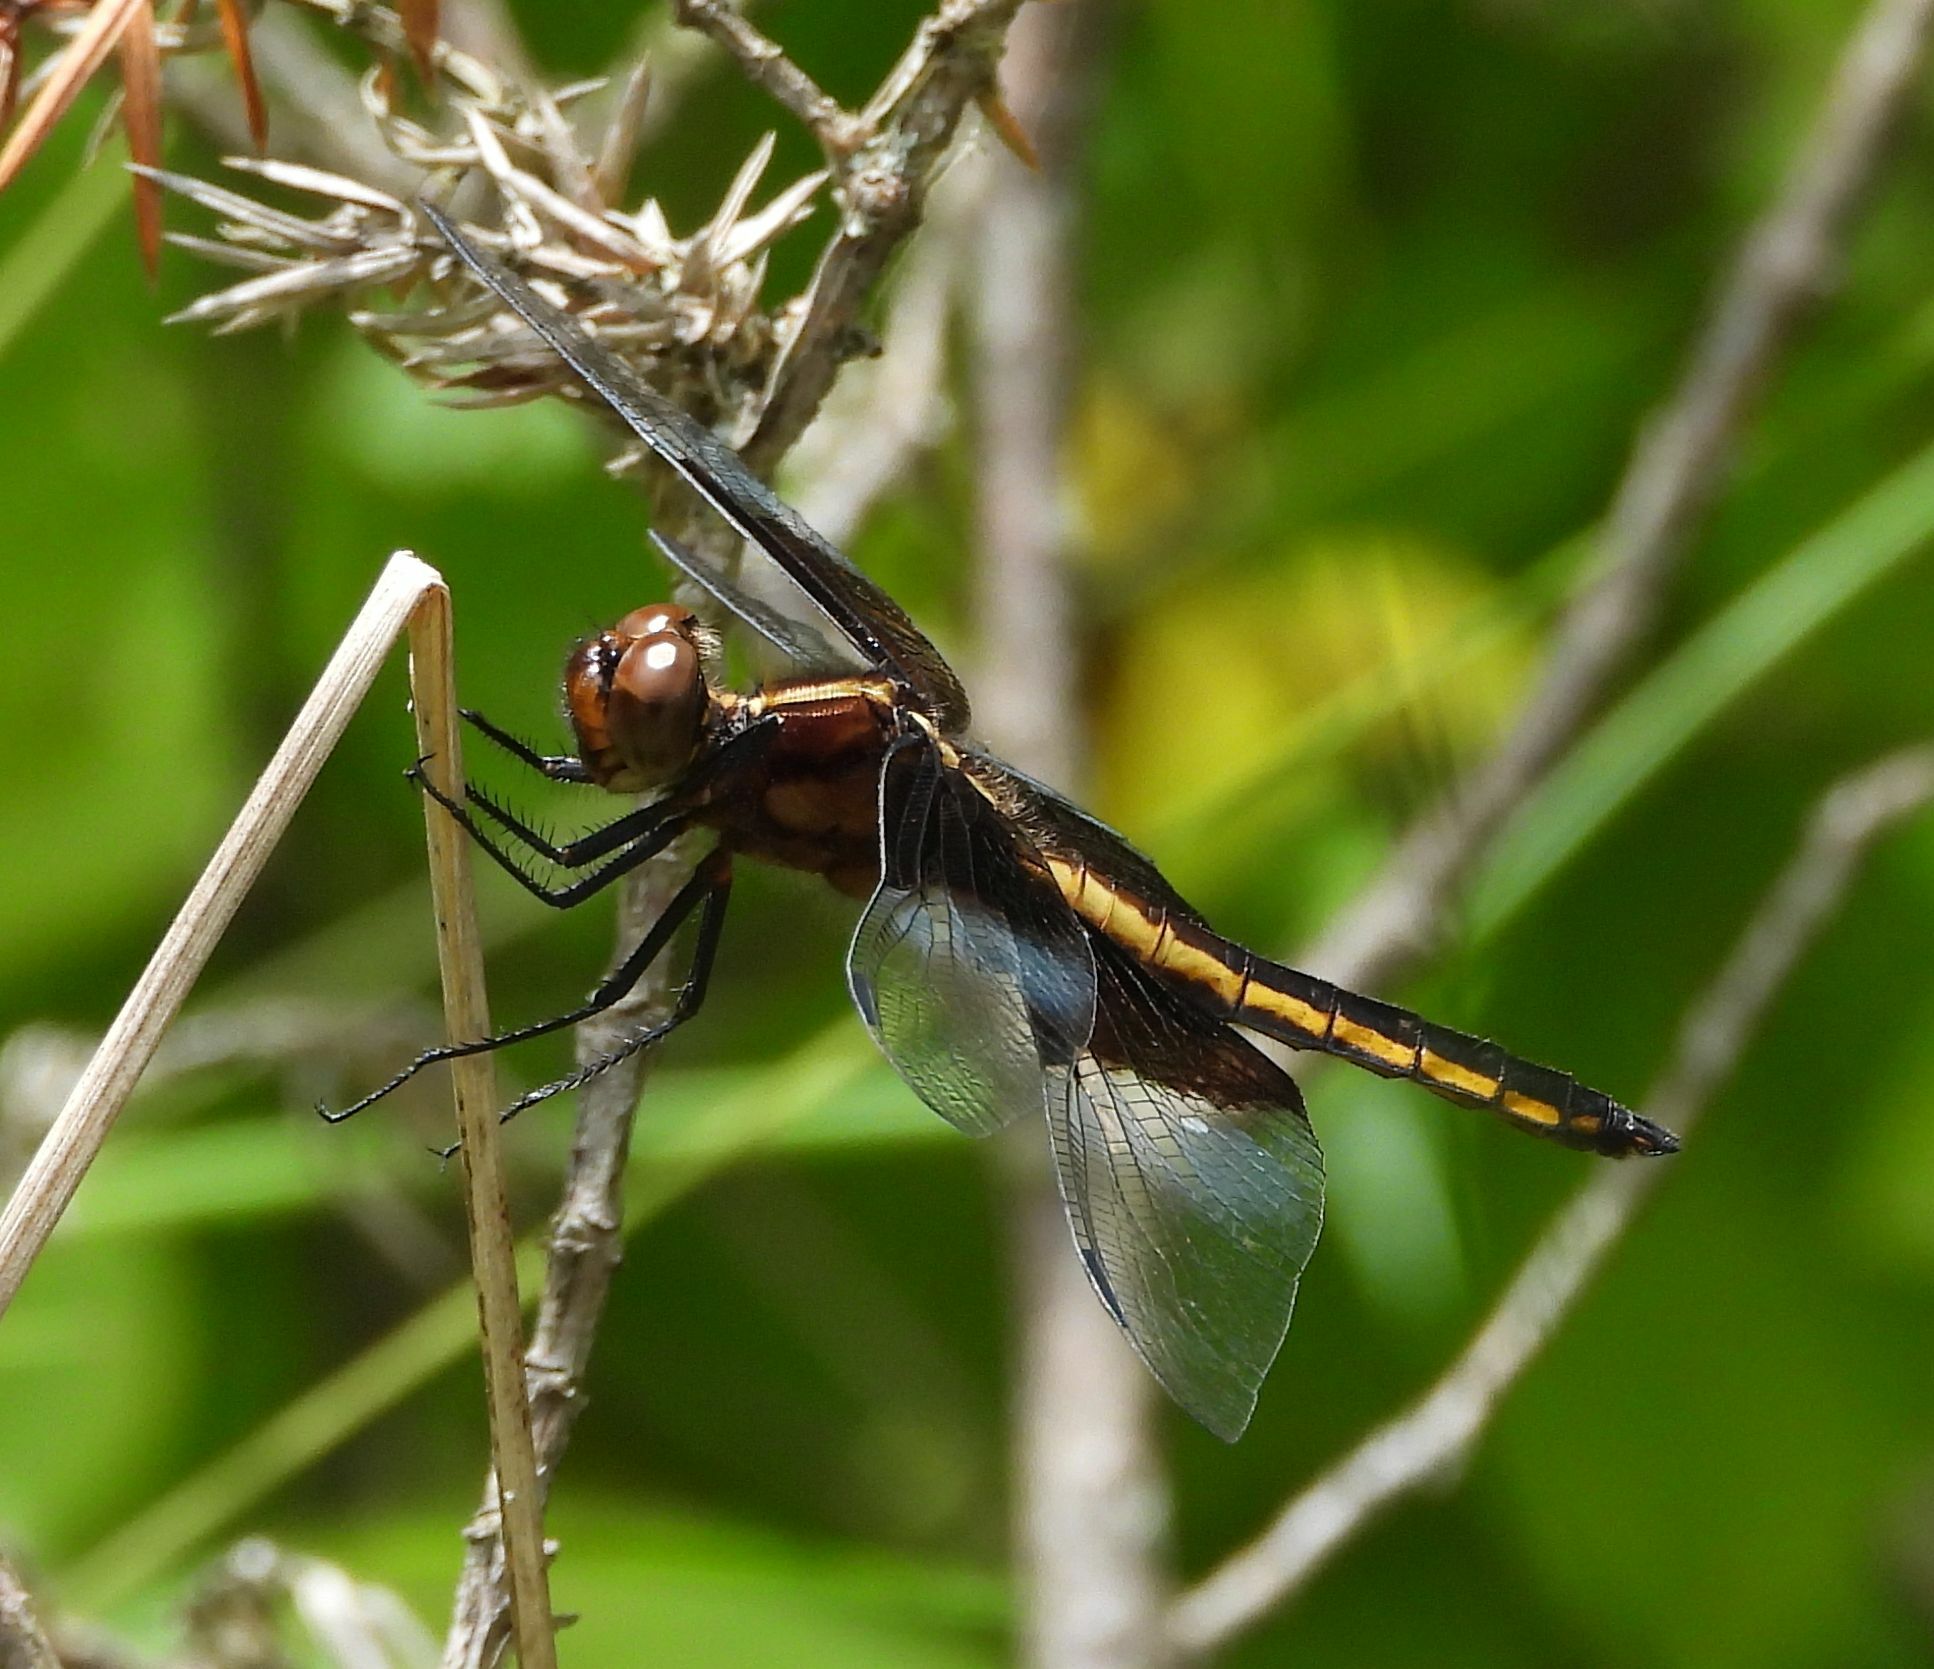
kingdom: Animalia
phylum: Arthropoda
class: Insecta
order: Odonata
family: Libellulidae
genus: Libellula
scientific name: Libellula luctuosa
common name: Widow skimmer
